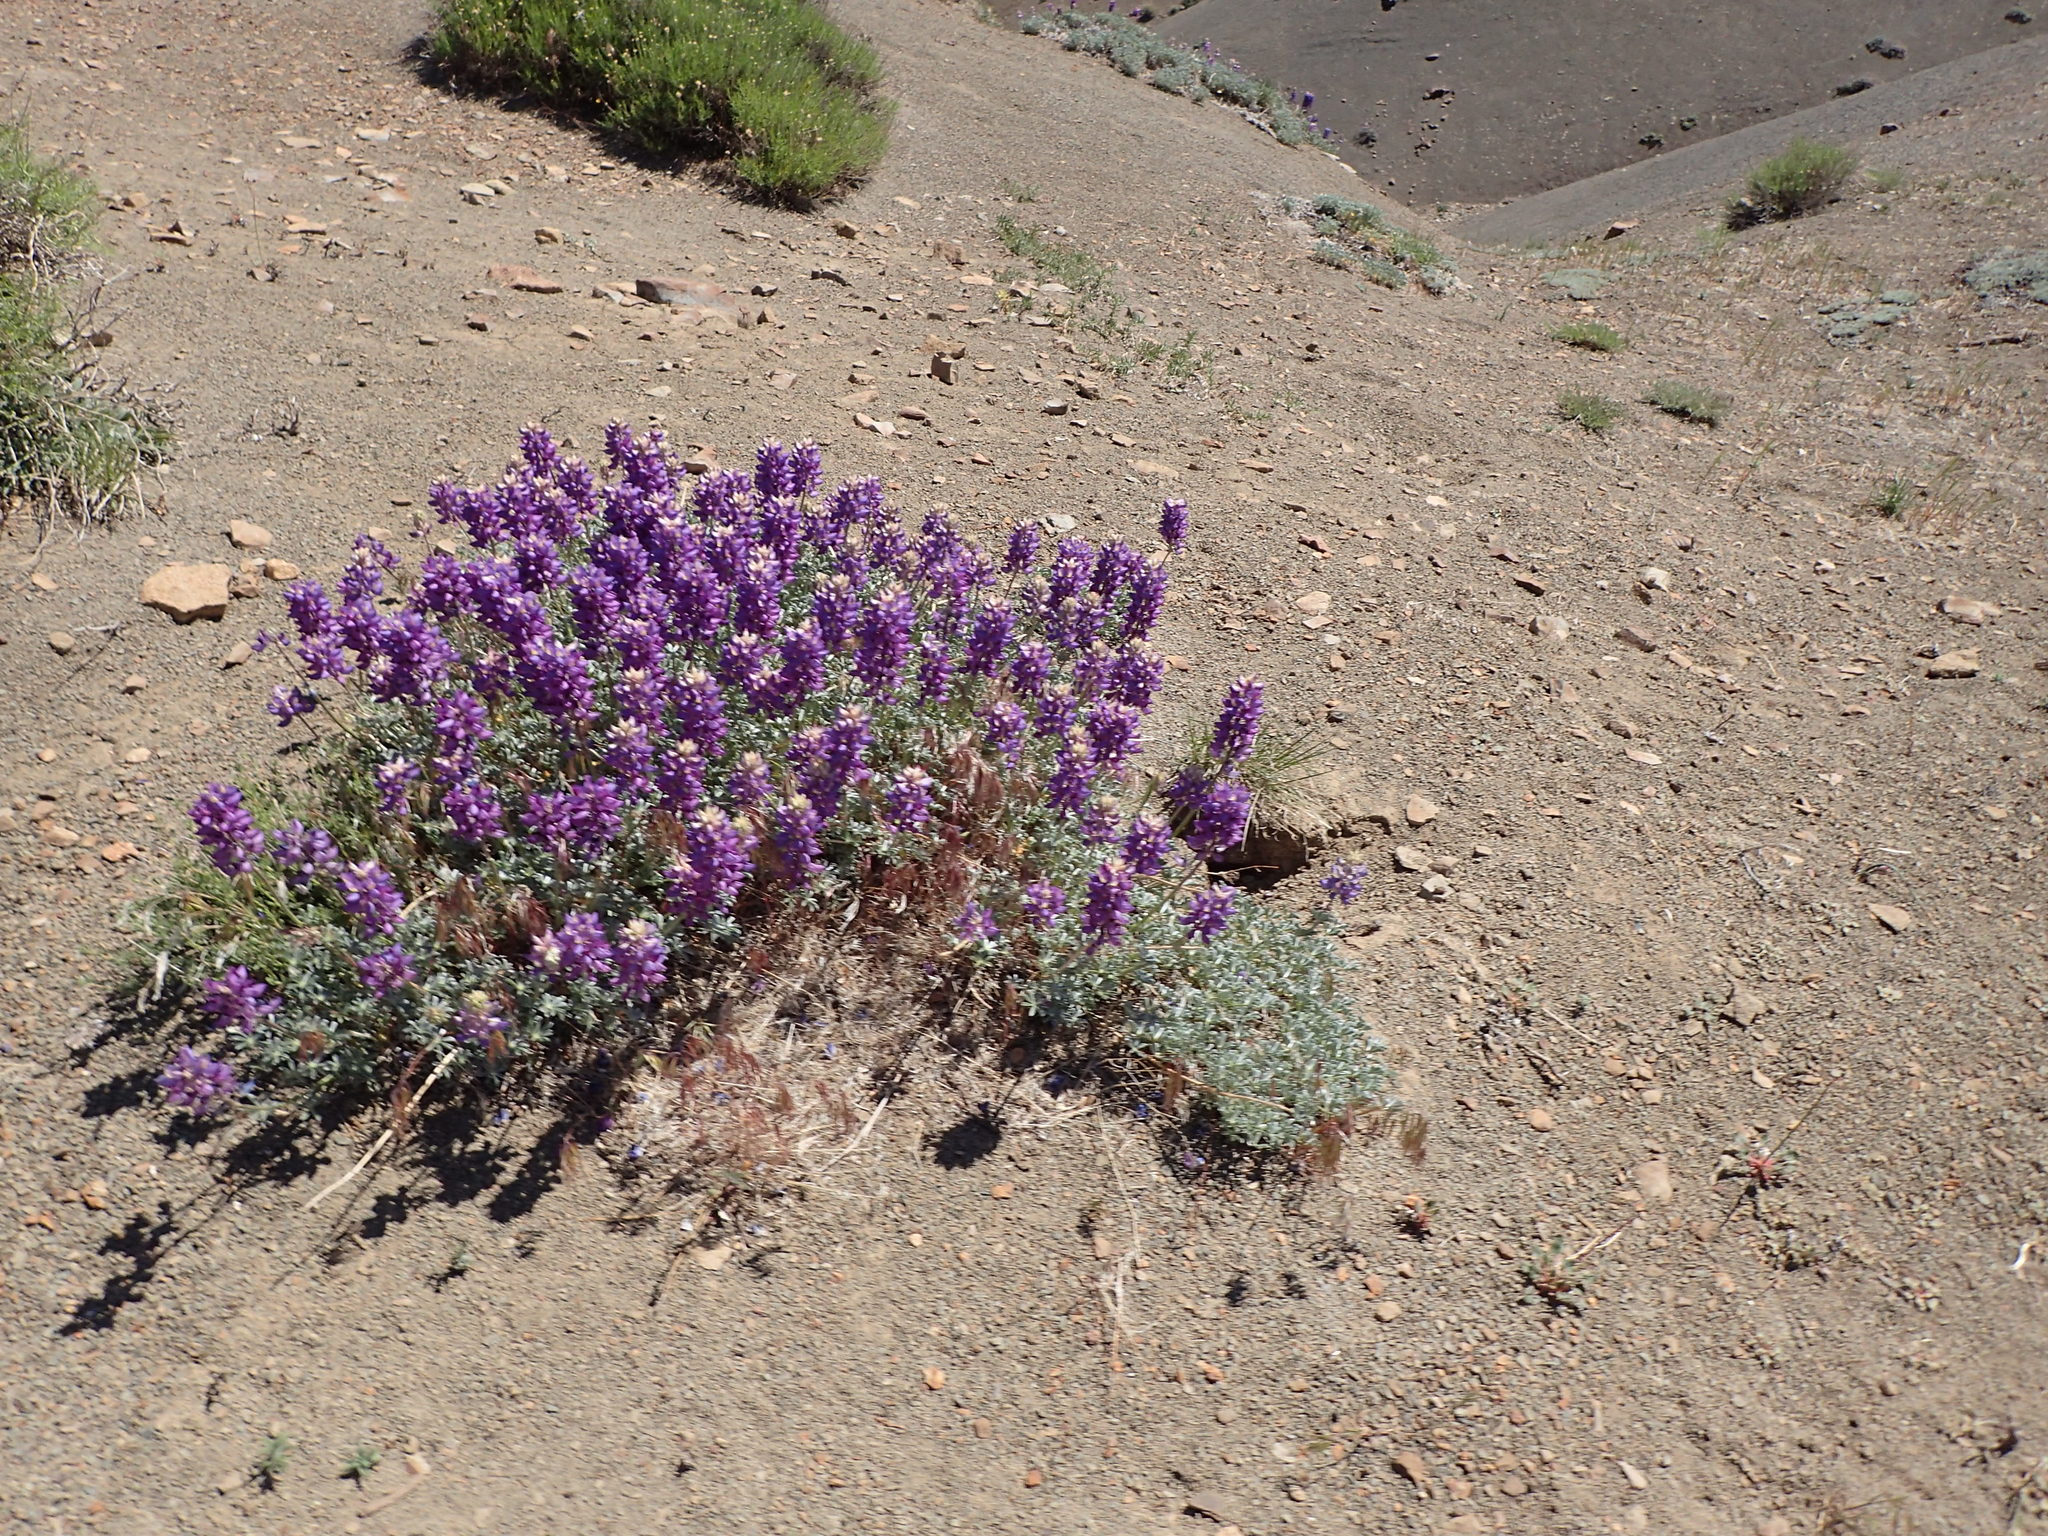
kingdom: Plantae
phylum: Tracheophyta
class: Magnoliopsida
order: Fabales
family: Fabaceae
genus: Lupinus
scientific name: Lupinus excubitus
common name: Grape soda lupine
